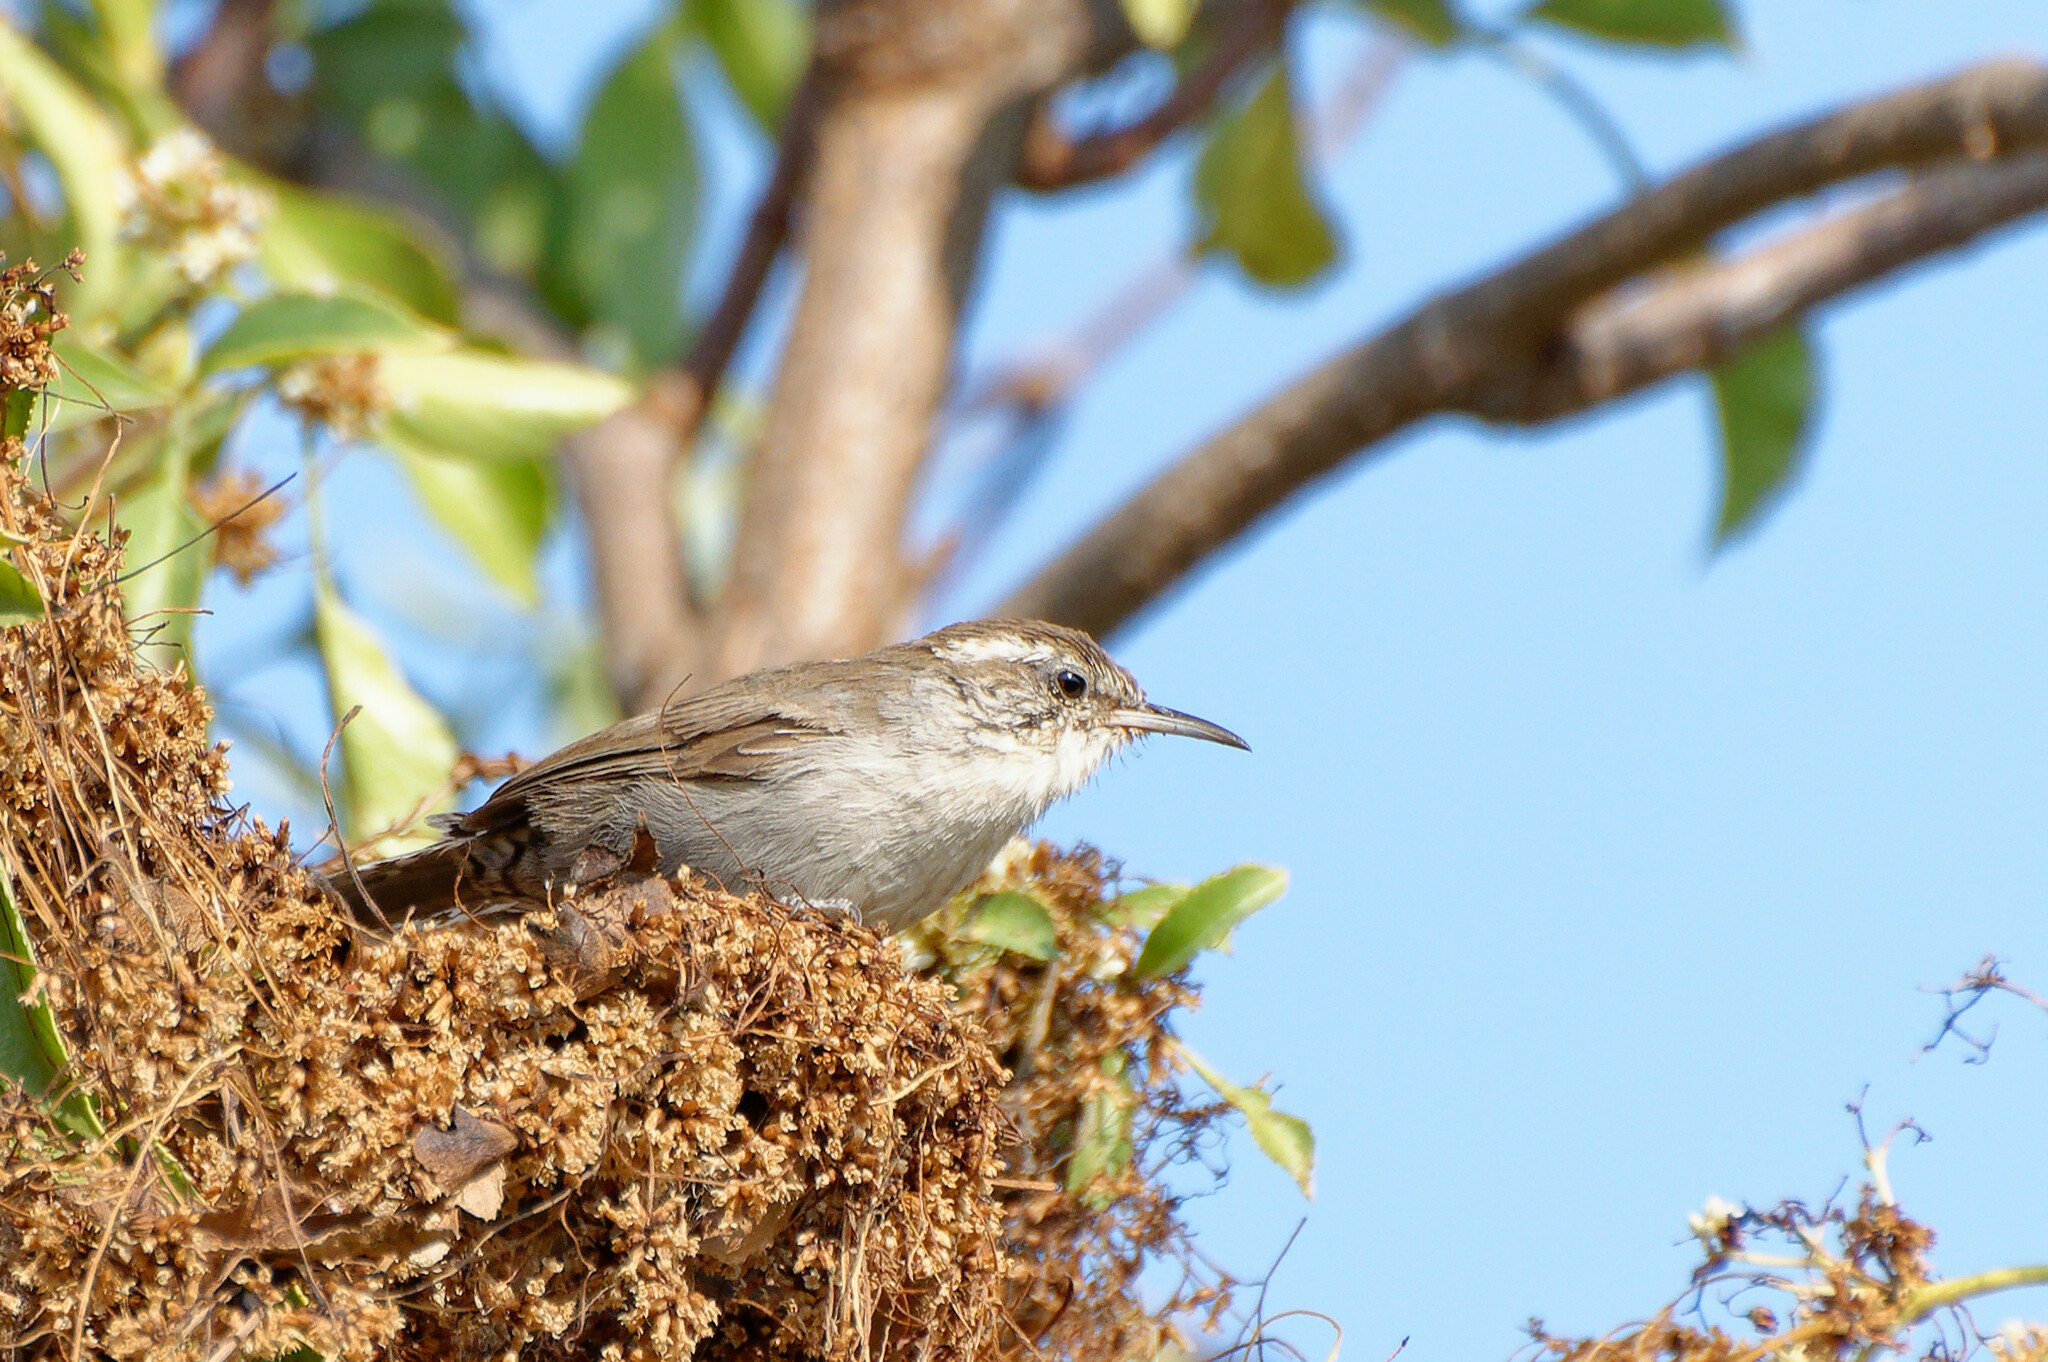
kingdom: Animalia
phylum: Chordata
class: Aves
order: Passeriformes
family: Troglodytidae
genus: Thryomanes
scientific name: Thryomanes bewickii
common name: Bewick's wren
